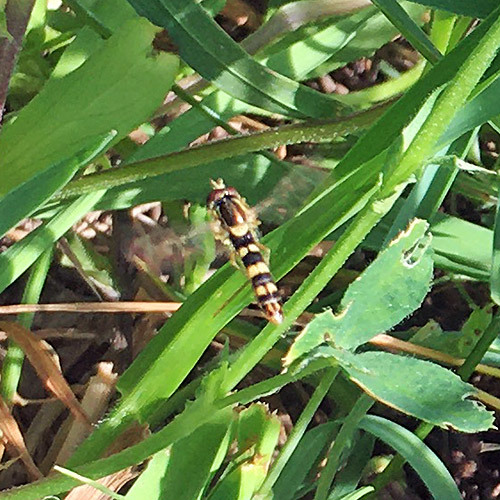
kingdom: Animalia
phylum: Arthropoda
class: Insecta
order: Diptera
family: Syrphidae
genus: Sphaerophoria
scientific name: Sphaerophoria
